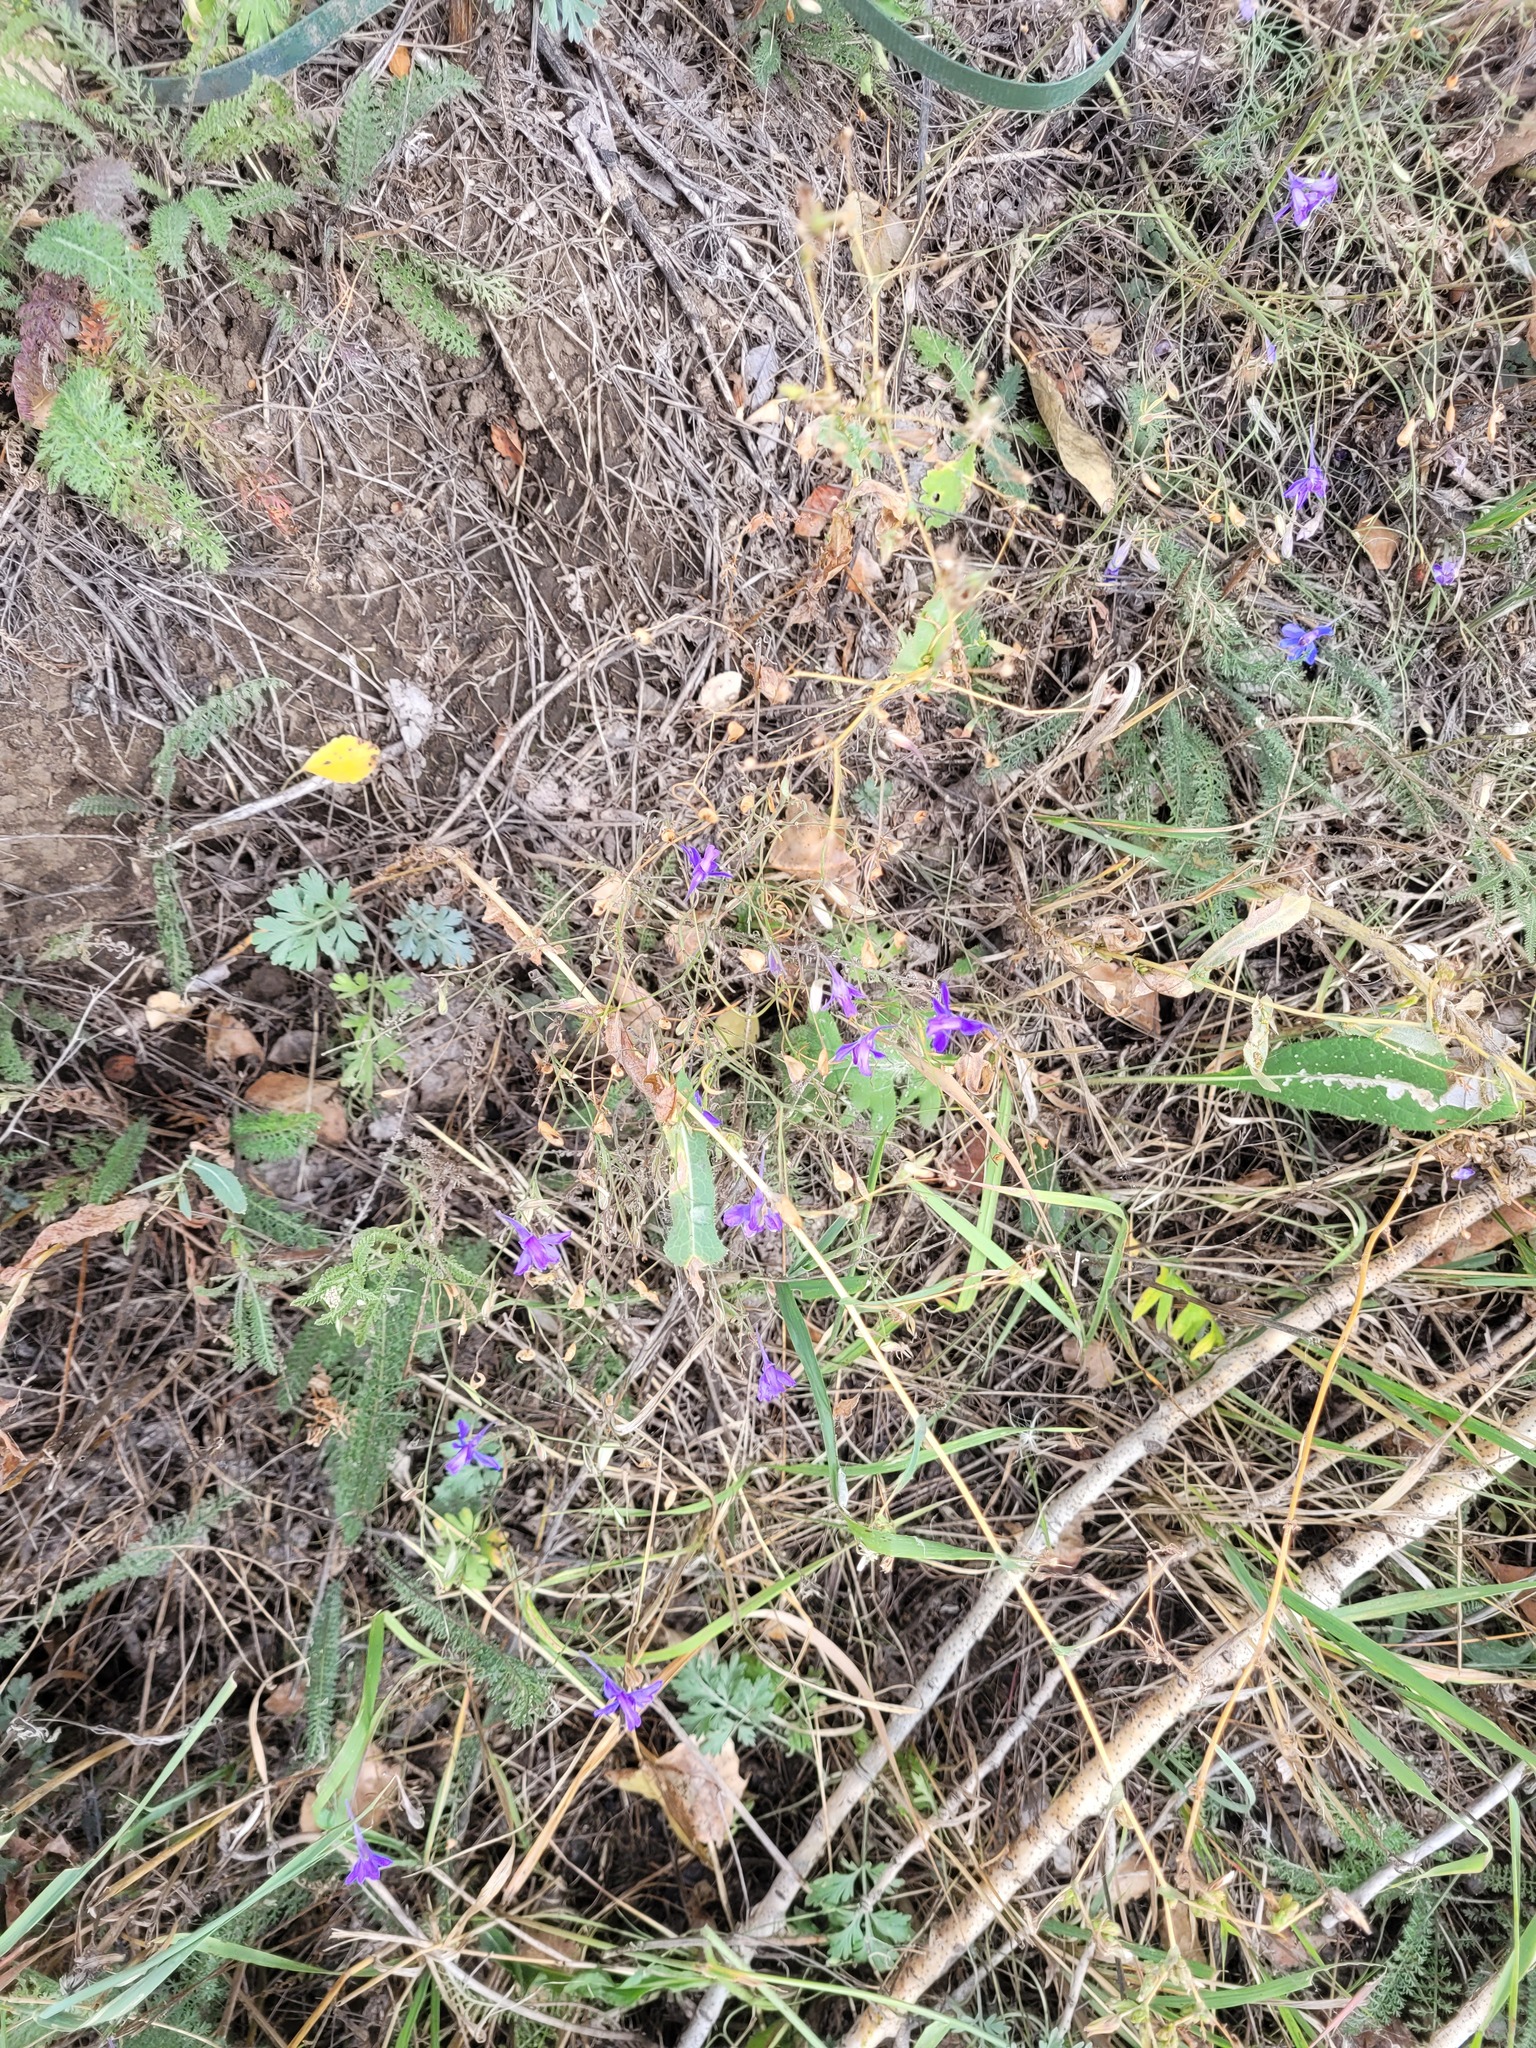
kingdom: Plantae
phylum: Tracheophyta
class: Magnoliopsida
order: Ranunculales
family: Ranunculaceae
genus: Delphinium
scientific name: Delphinium consolida
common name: Branching larkspur
